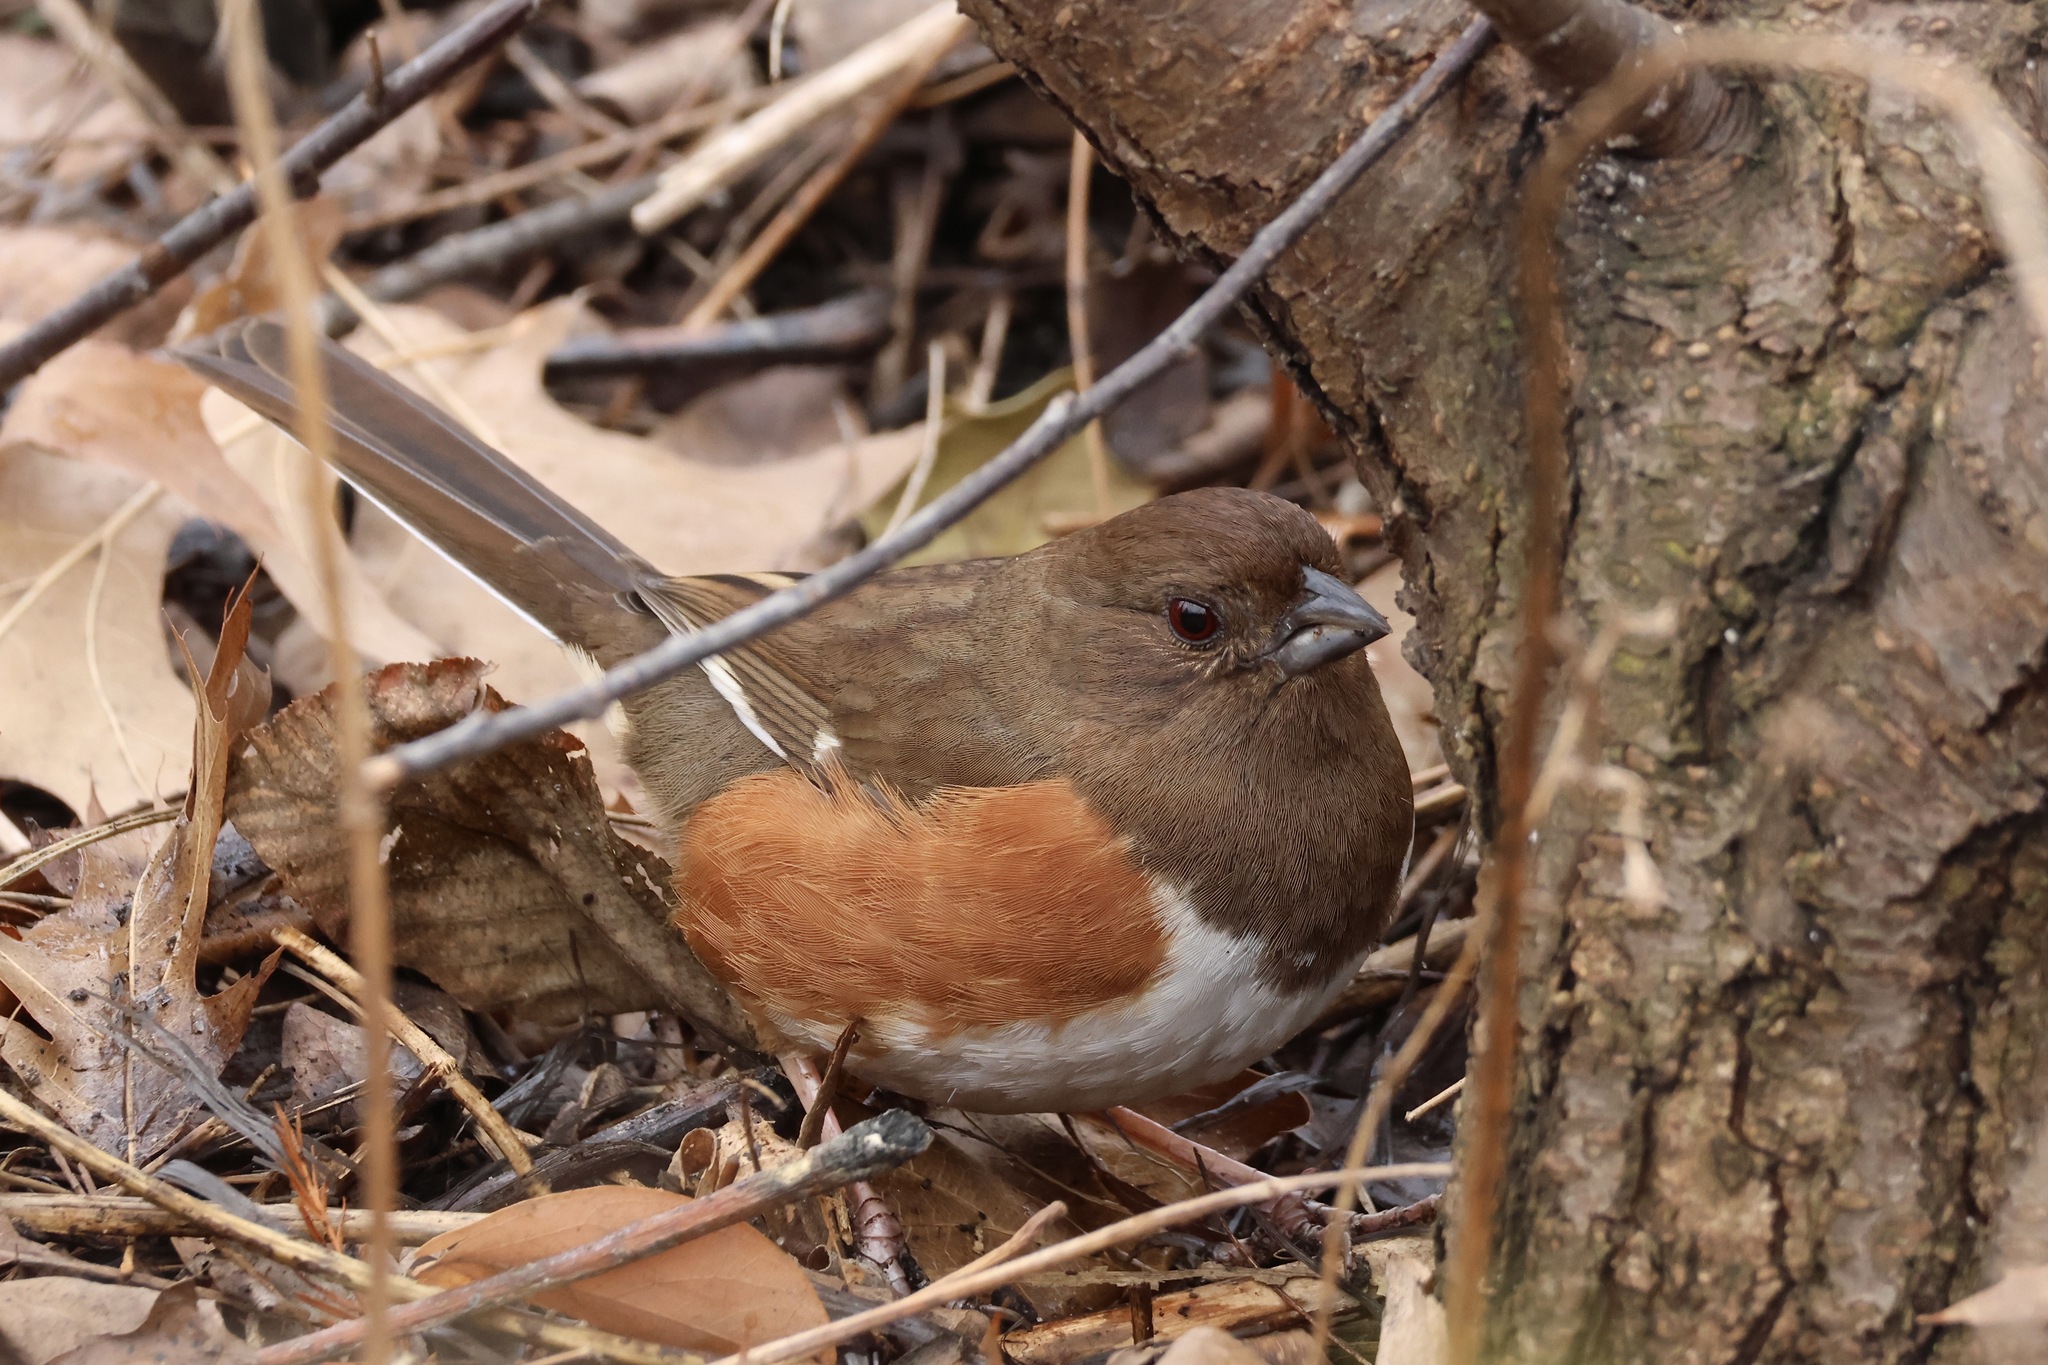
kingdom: Animalia
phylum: Chordata
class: Aves
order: Passeriformes
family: Passerellidae
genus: Pipilo
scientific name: Pipilo erythrophthalmus
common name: Eastern towhee
